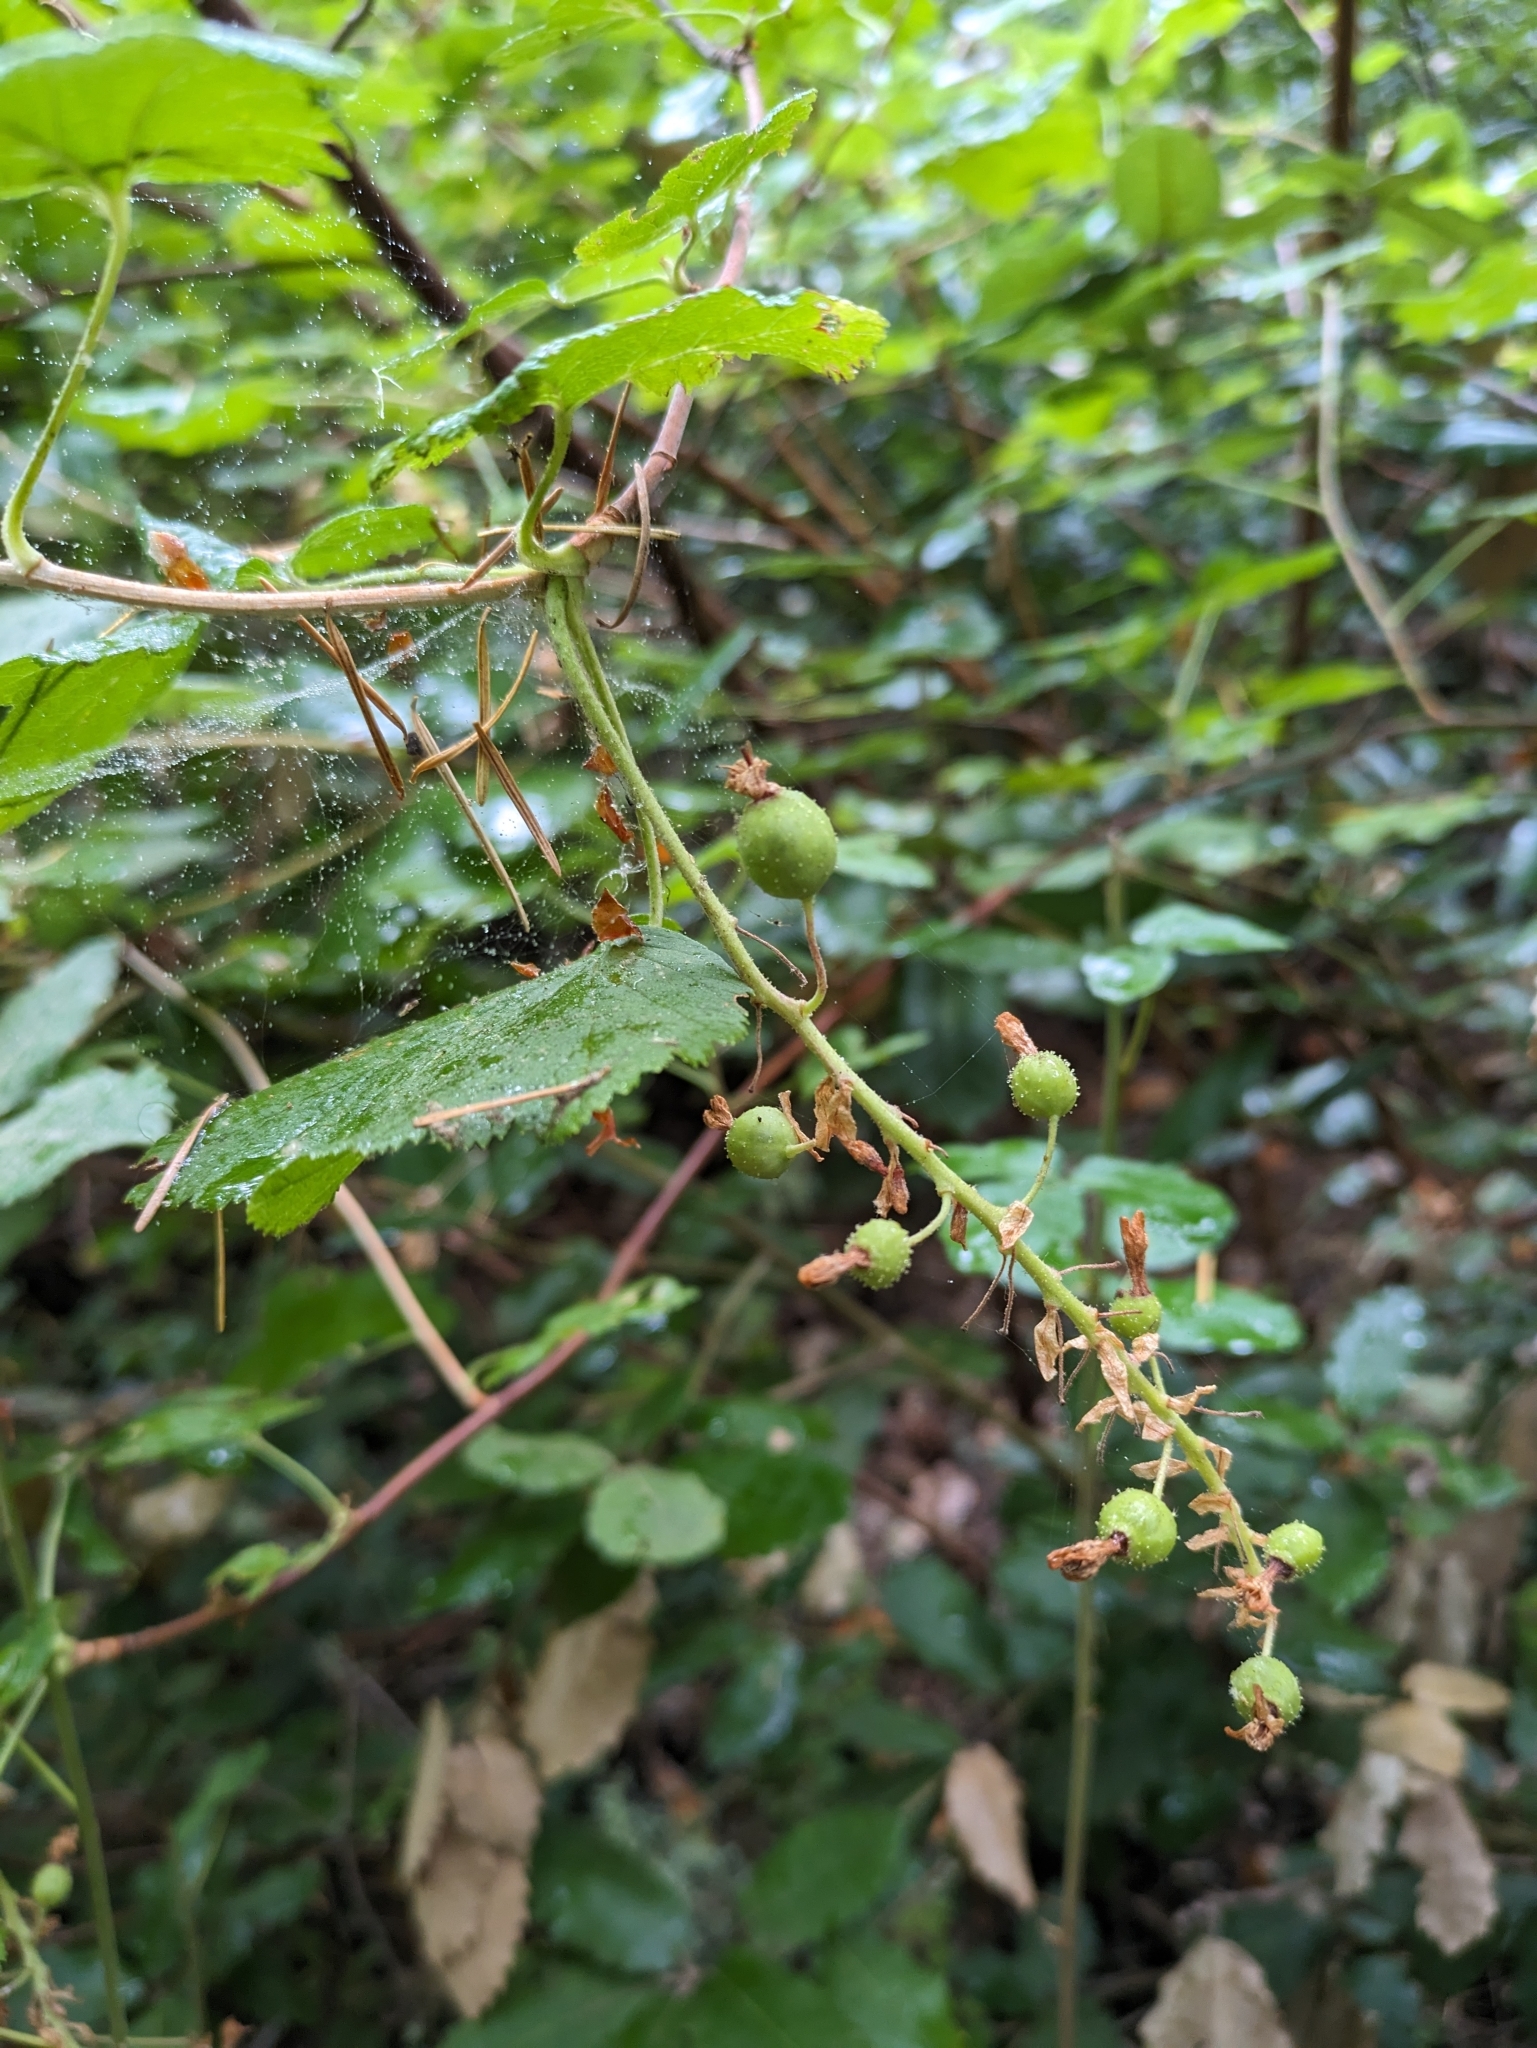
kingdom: Plantae
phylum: Tracheophyta
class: Magnoliopsida
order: Saxifragales
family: Grossulariaceae
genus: Ribes
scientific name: Ribes sanguineum
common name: Flowering currant
